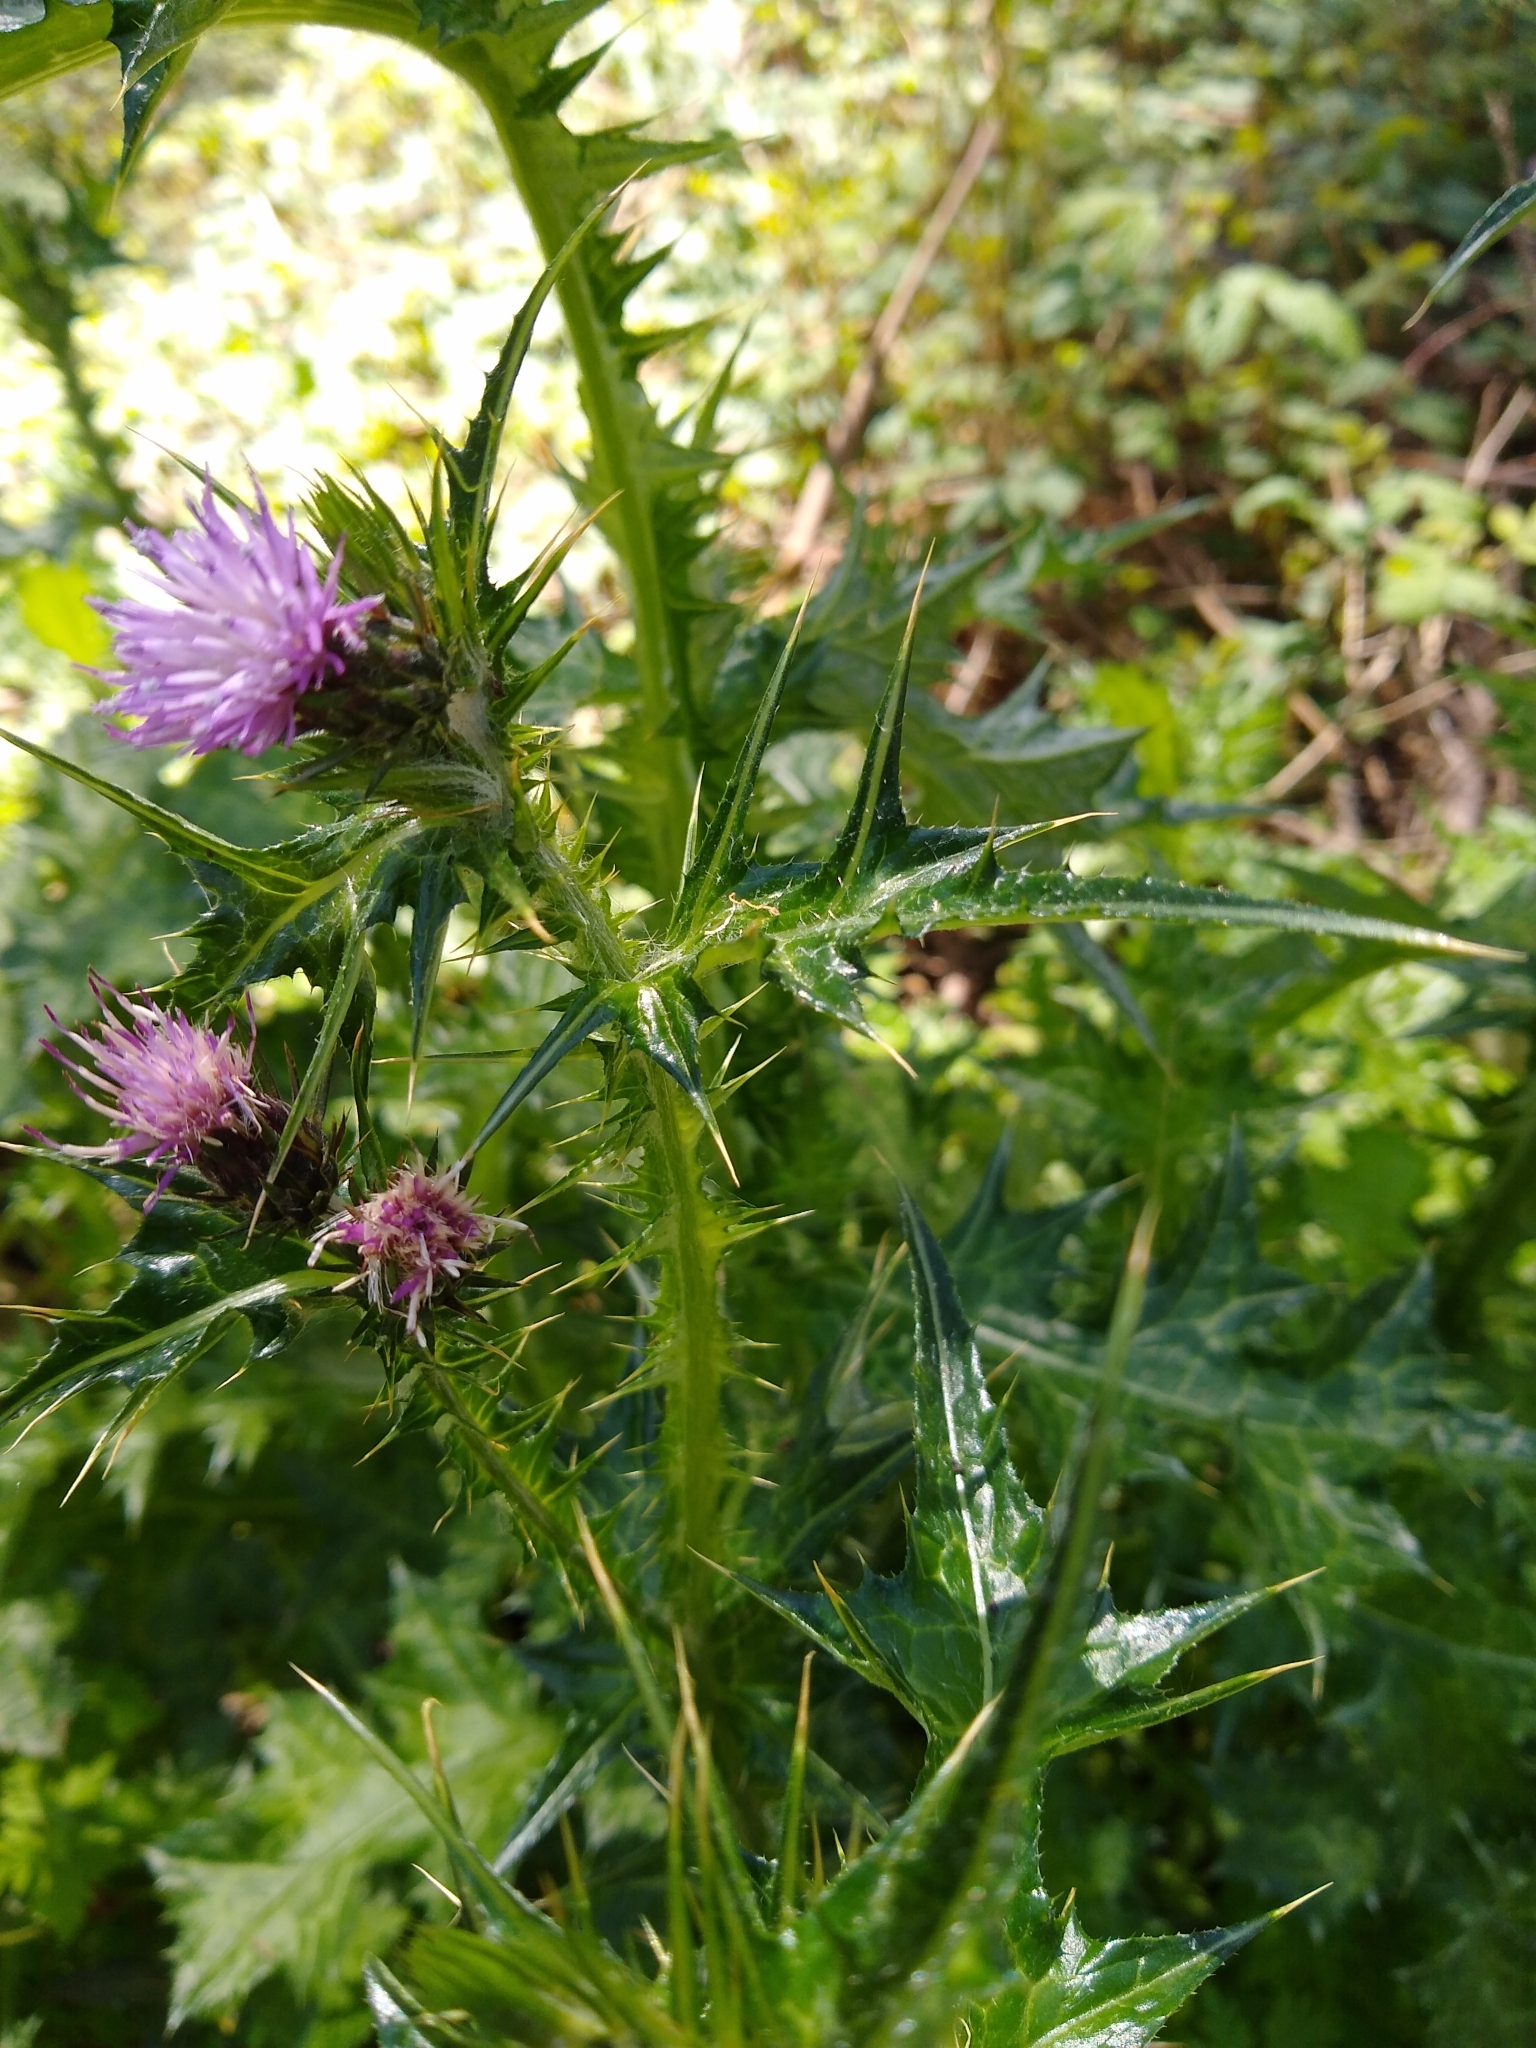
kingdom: Plantae
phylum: Tracheophyta
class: Magnoliopsida
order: Asterales
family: Asteraceae
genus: Carduus
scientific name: Carduus pycnocephalus
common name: Plymouth thistle
